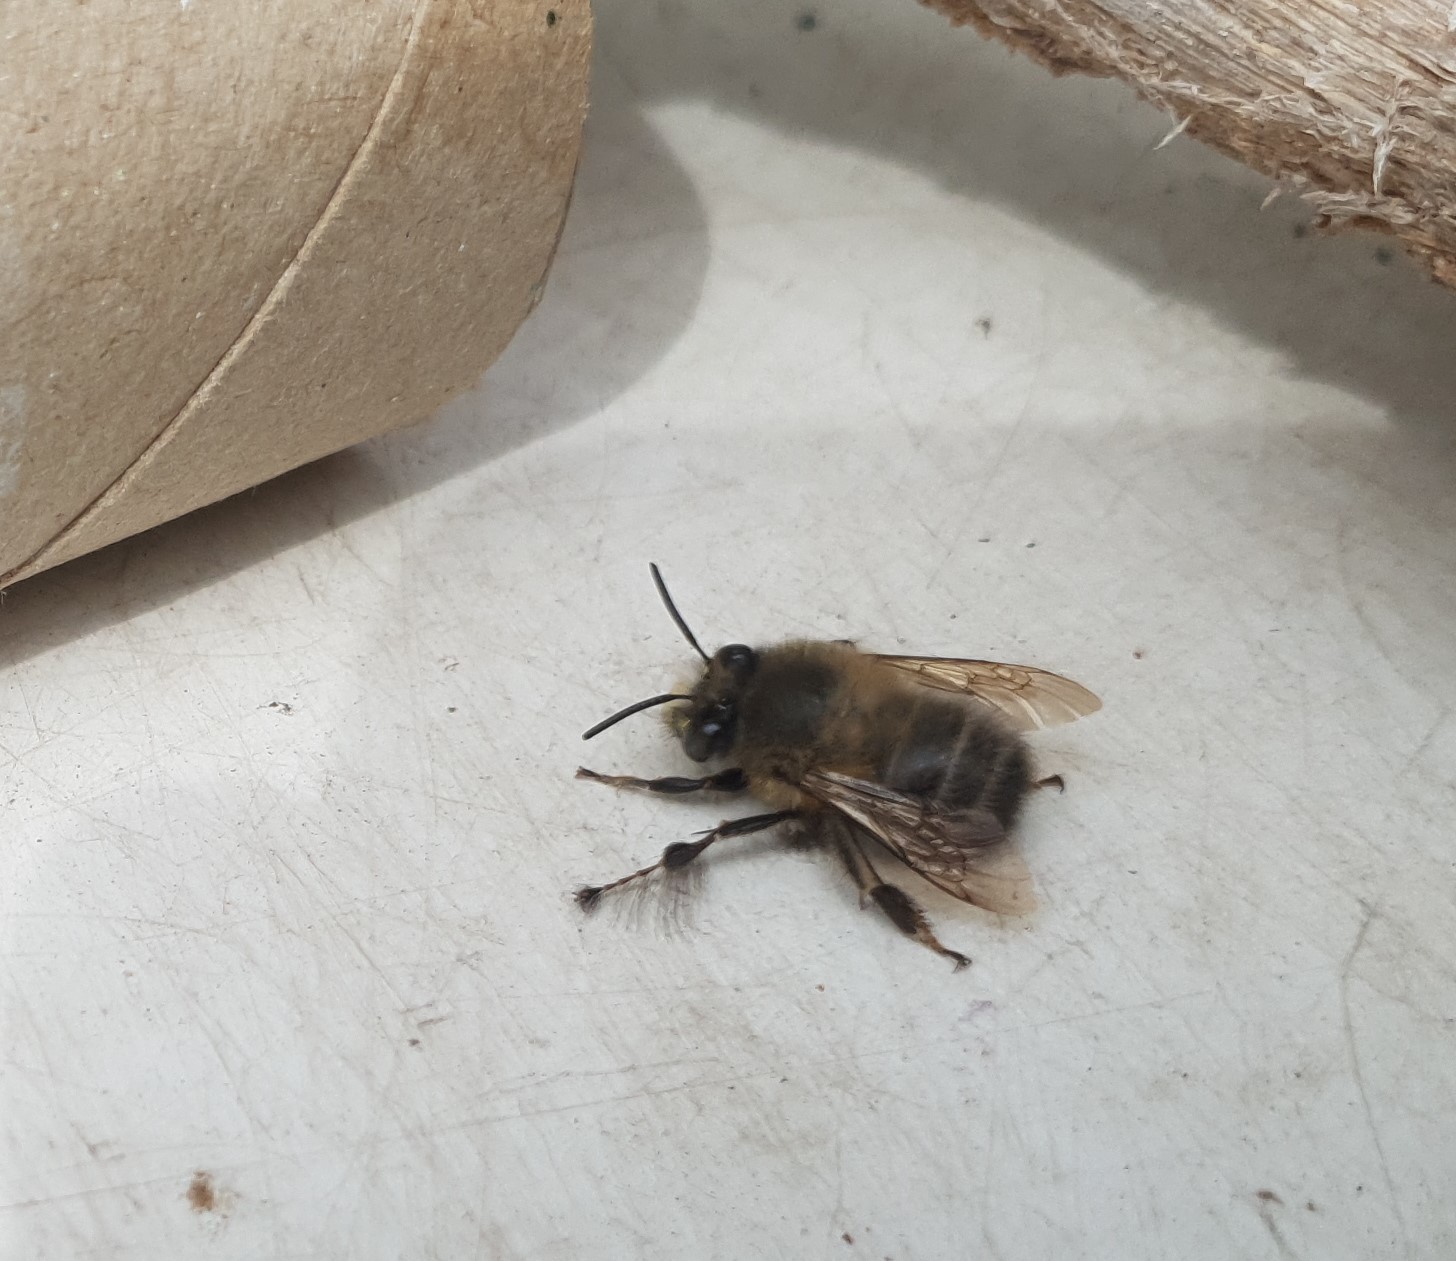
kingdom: Animalia
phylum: Arthropoda
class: Insecta
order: Hymenoptera
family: Apidae
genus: Anthophora
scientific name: Anthophora plumipes
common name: Hairy-footed flower bee
